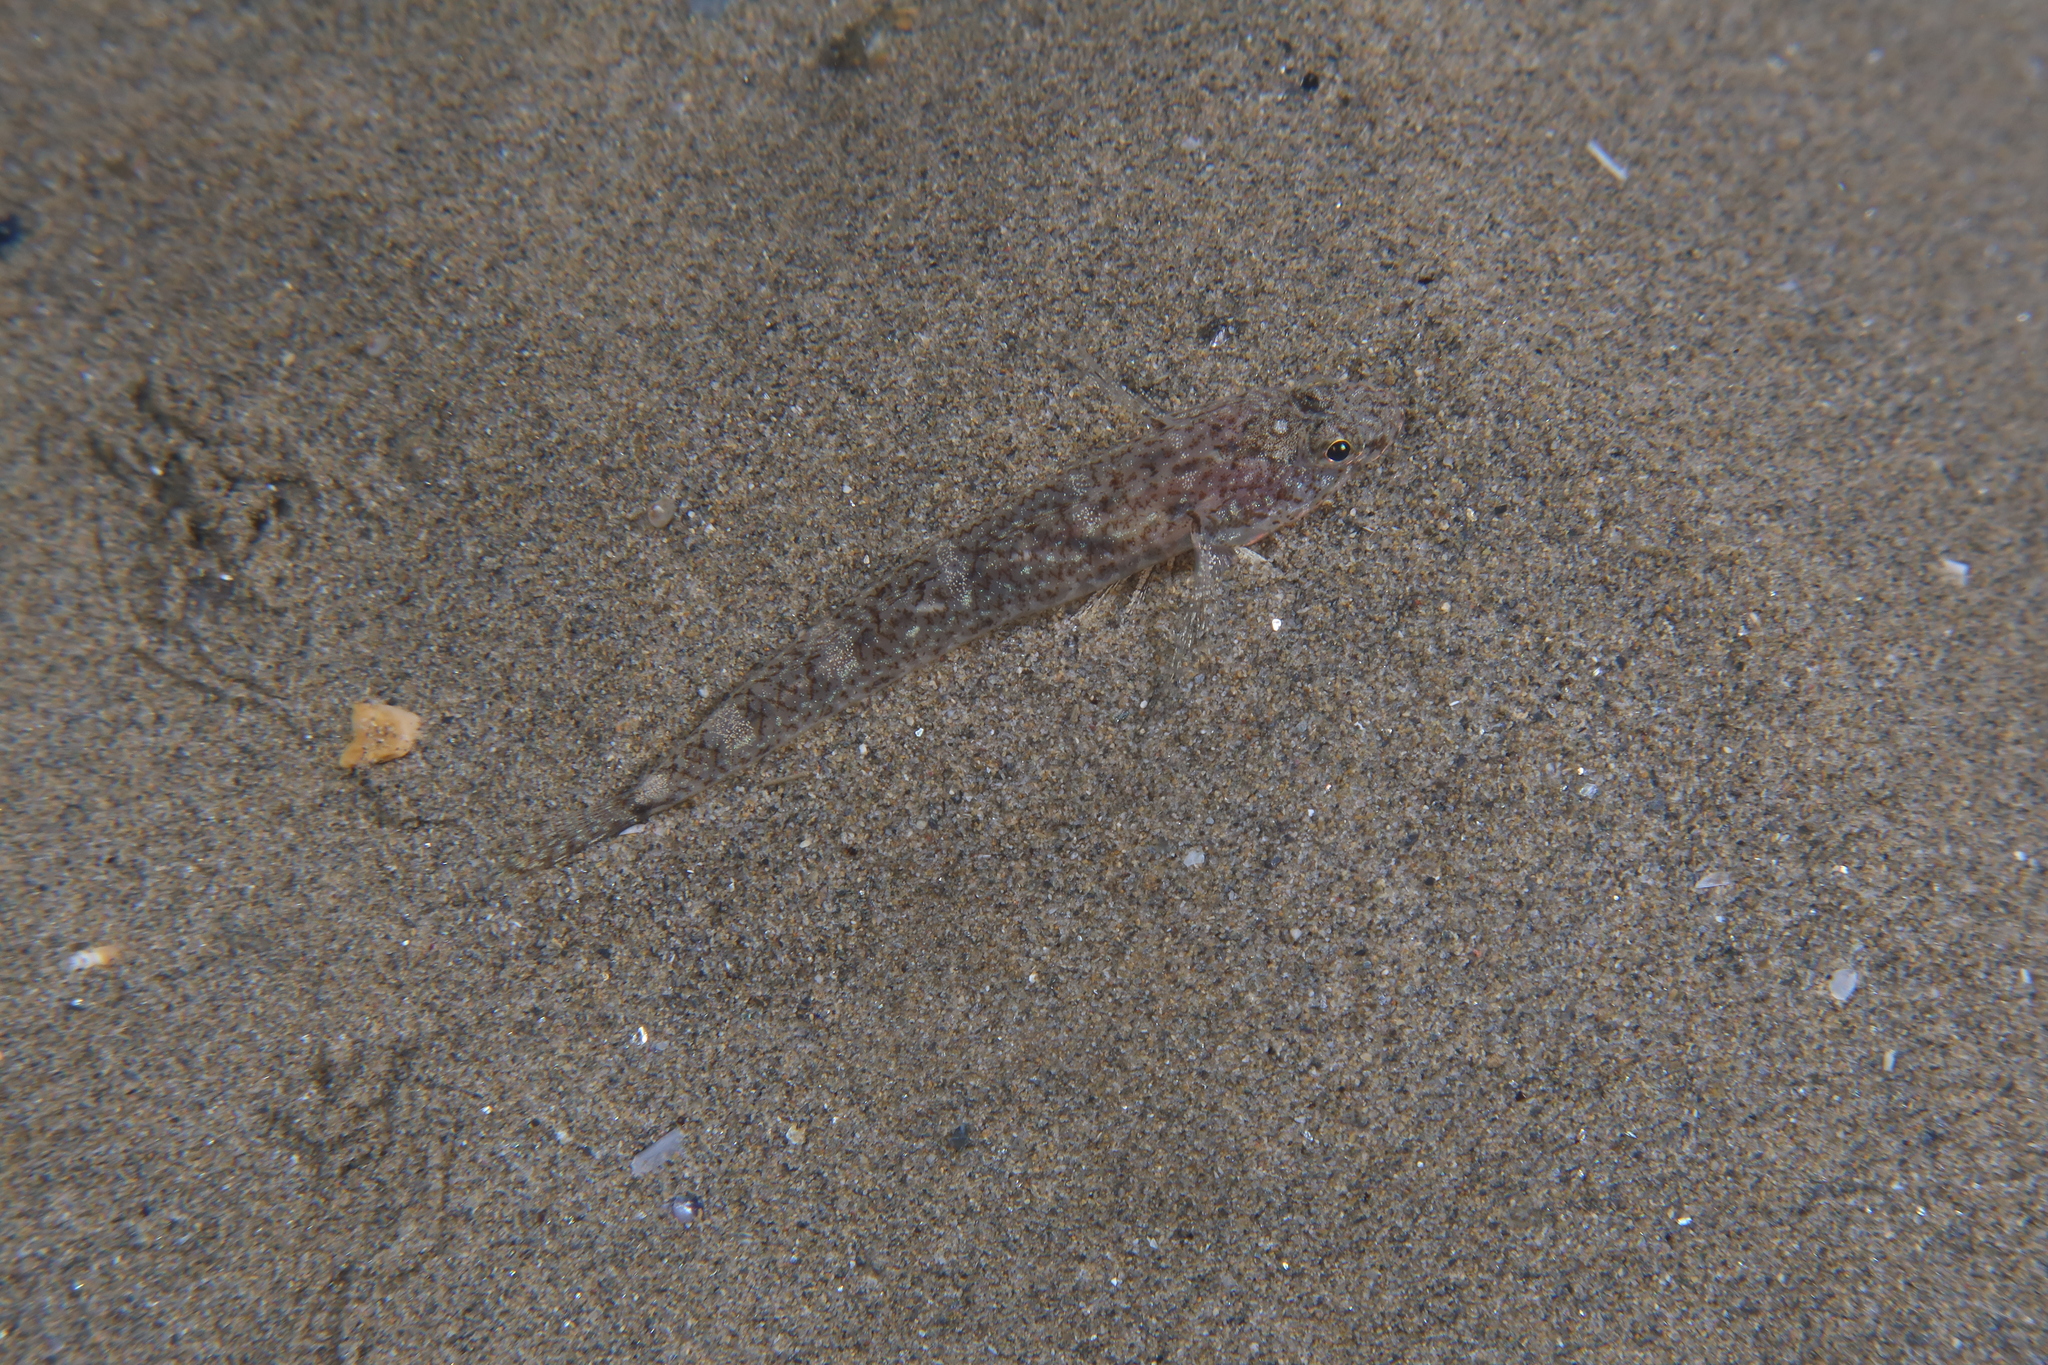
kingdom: Animalia
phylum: Chordata
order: Perciformes
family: Gobiidae
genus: Pomatoschistus
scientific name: Pomatoschistus marmoratus
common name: Marbled goby
